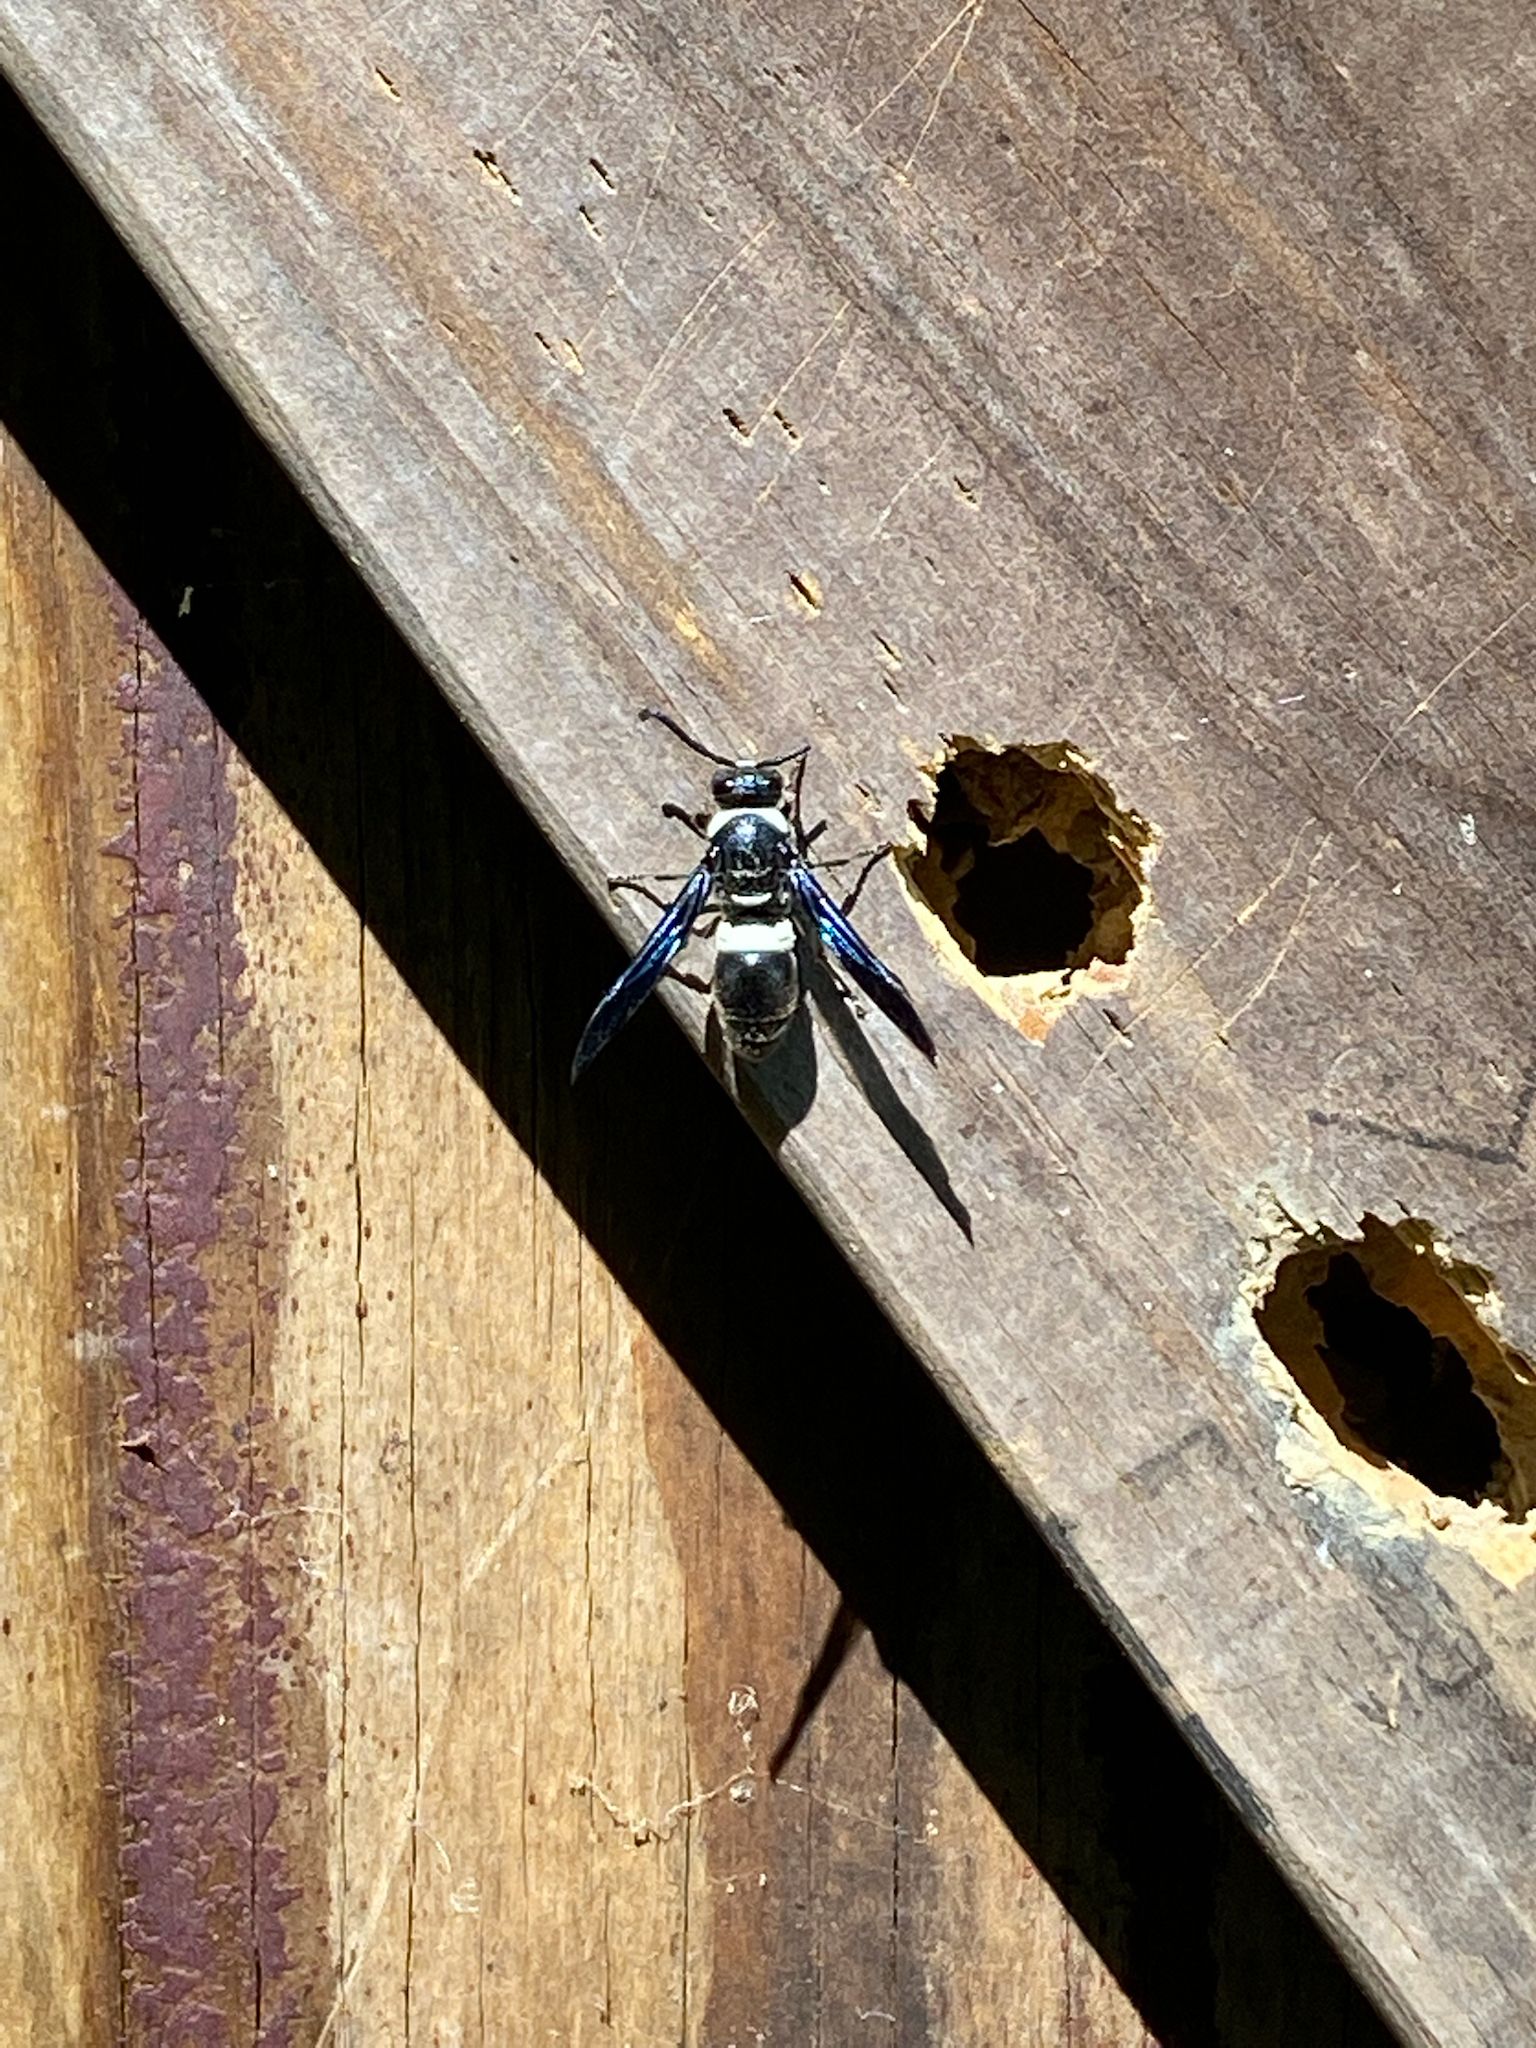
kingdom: Animalia
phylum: Arthropoda
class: Insecta
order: Hymenoptera
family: Eumenidae
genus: Monobia
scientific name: Monobia quadridens
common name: Four-toothed mason wasp
